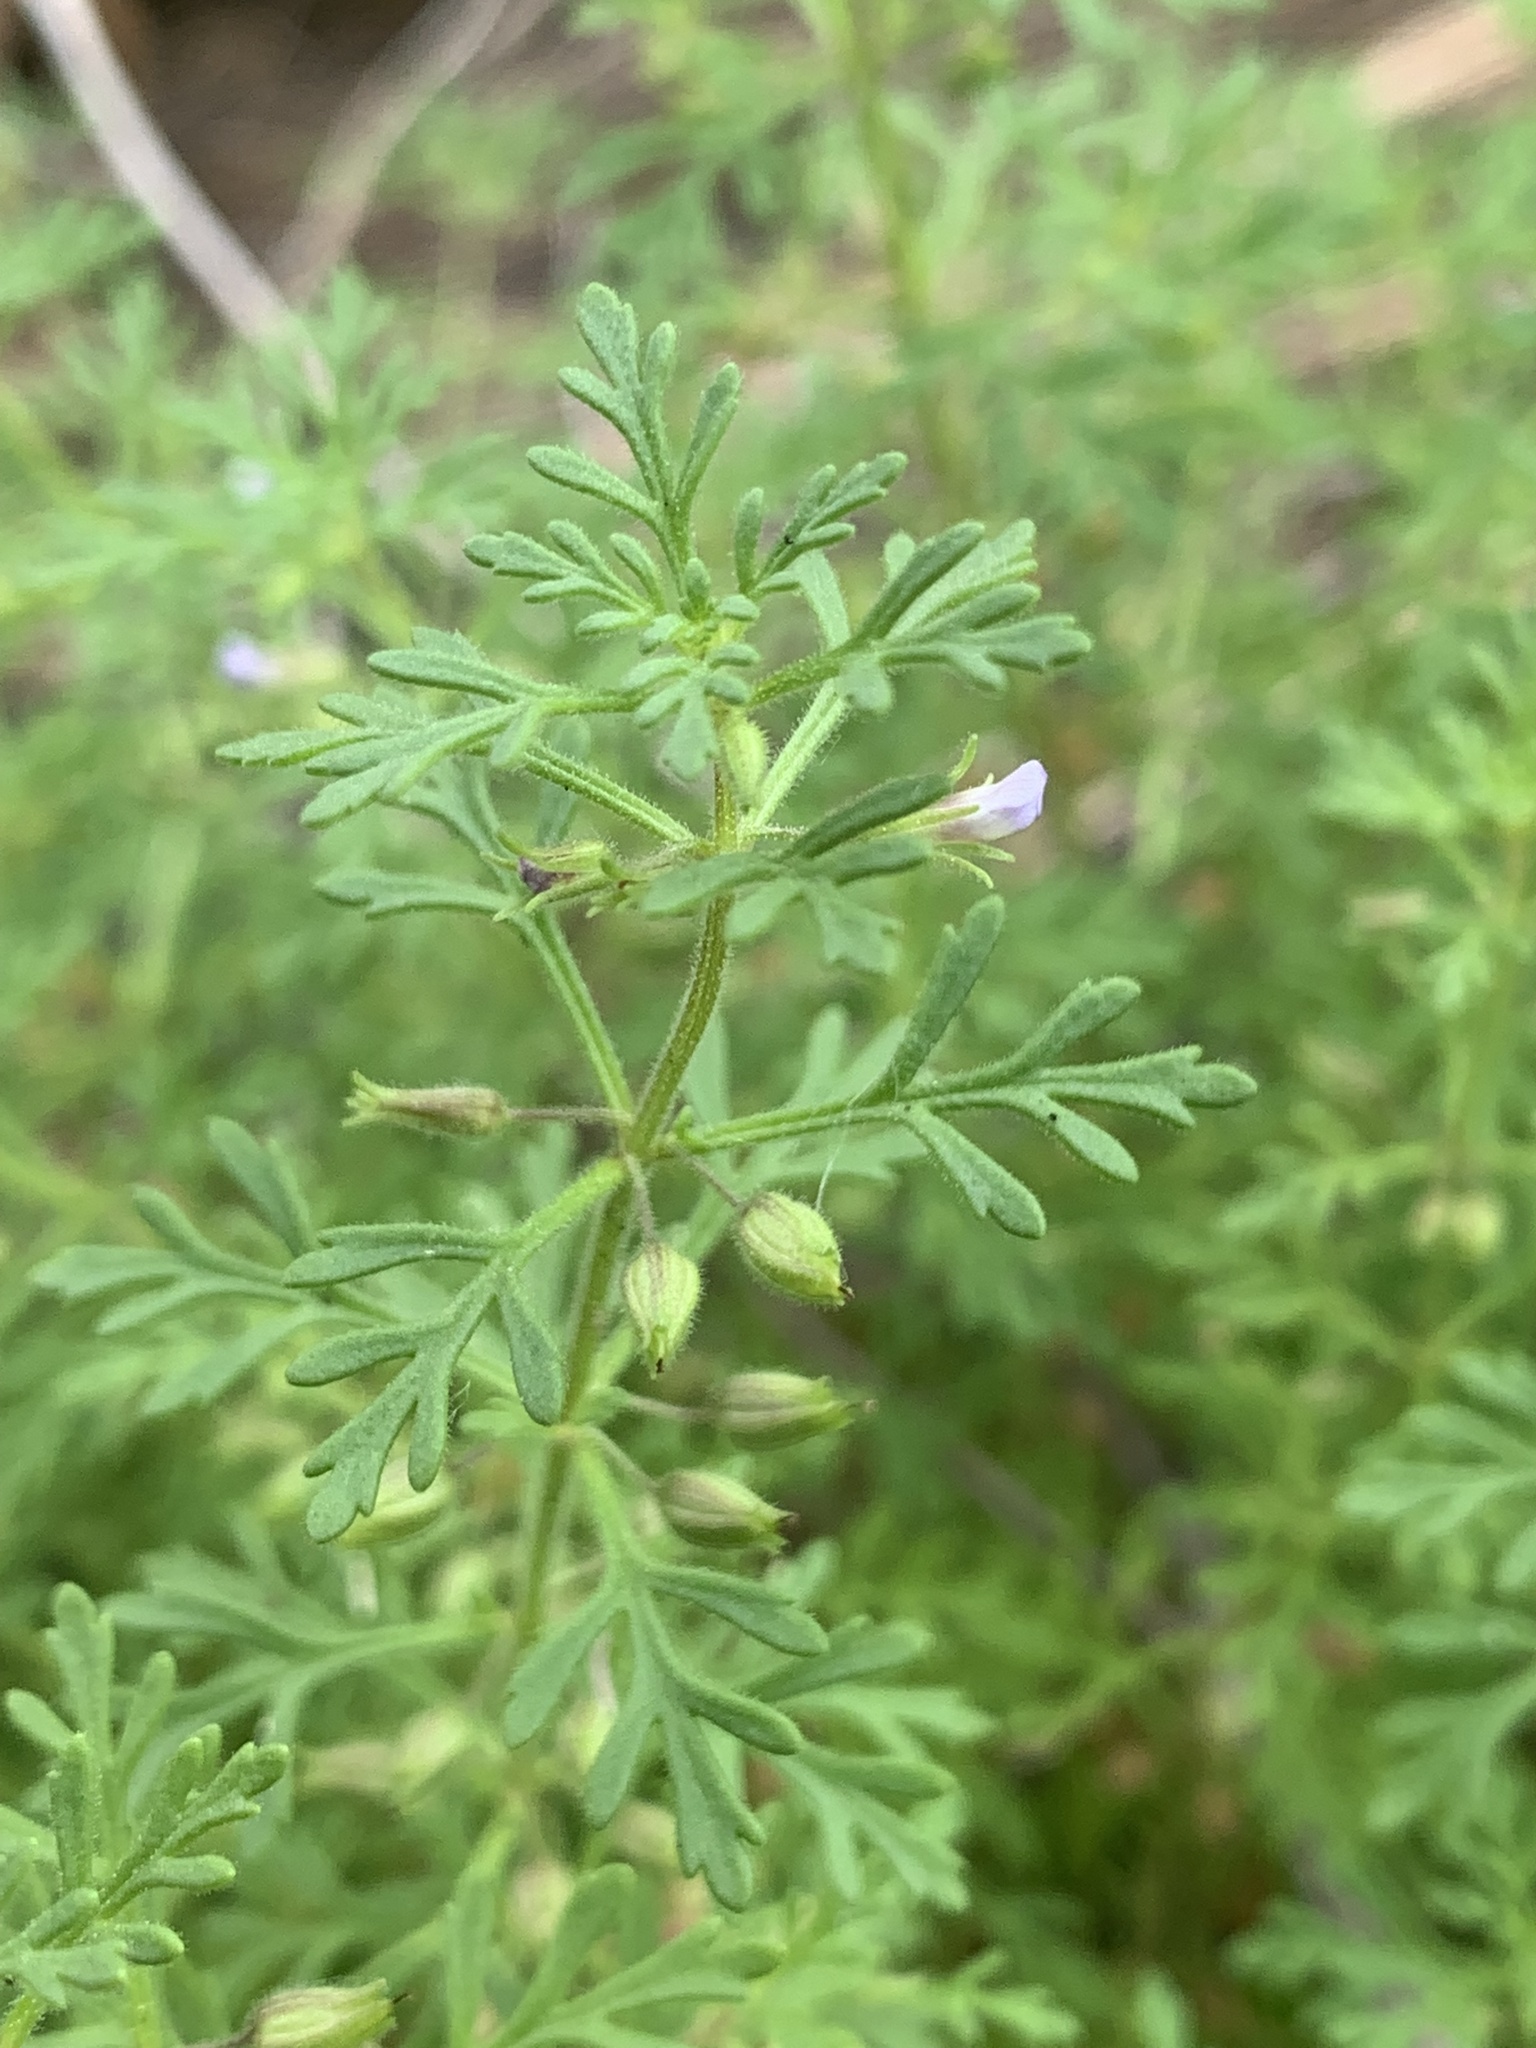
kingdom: Plantae
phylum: Tracheophyta
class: Magnoliopsida
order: Lamiales
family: Plantaginaceae
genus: Leucospora
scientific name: Leucospora multifida
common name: Narrow-leaf paleseed
